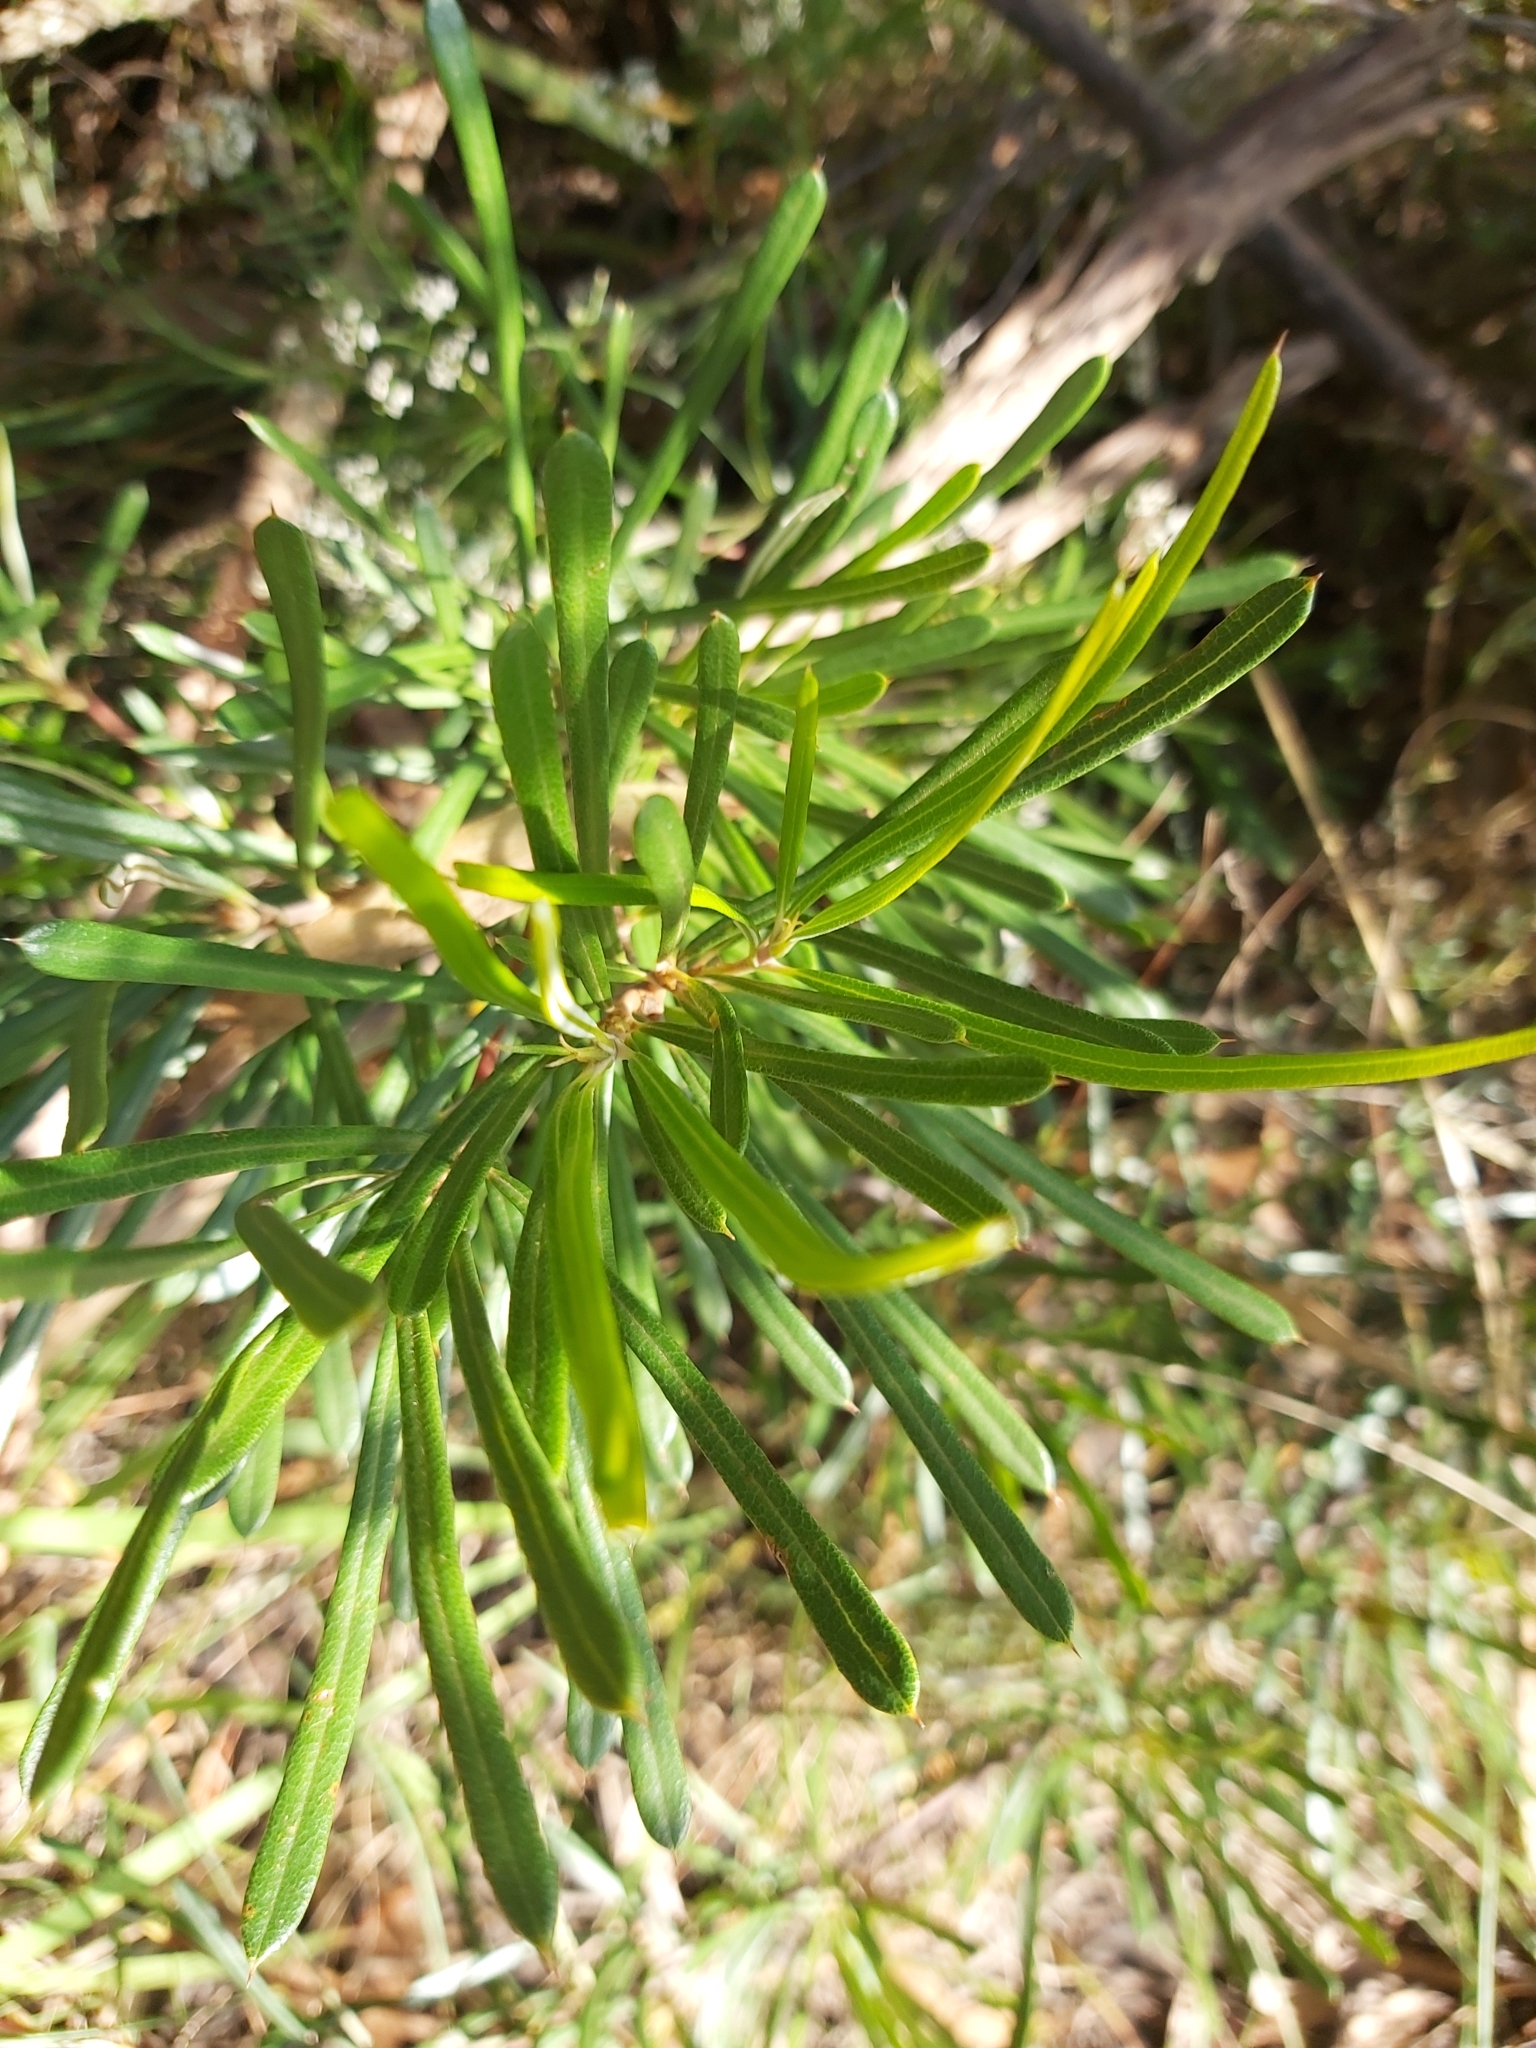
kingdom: Plantae
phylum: Tracheophyta
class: Magnoliopsida
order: Proteales
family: Proteaceae
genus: Lambertia
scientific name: Lambertia formosa
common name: Mountain-devil
